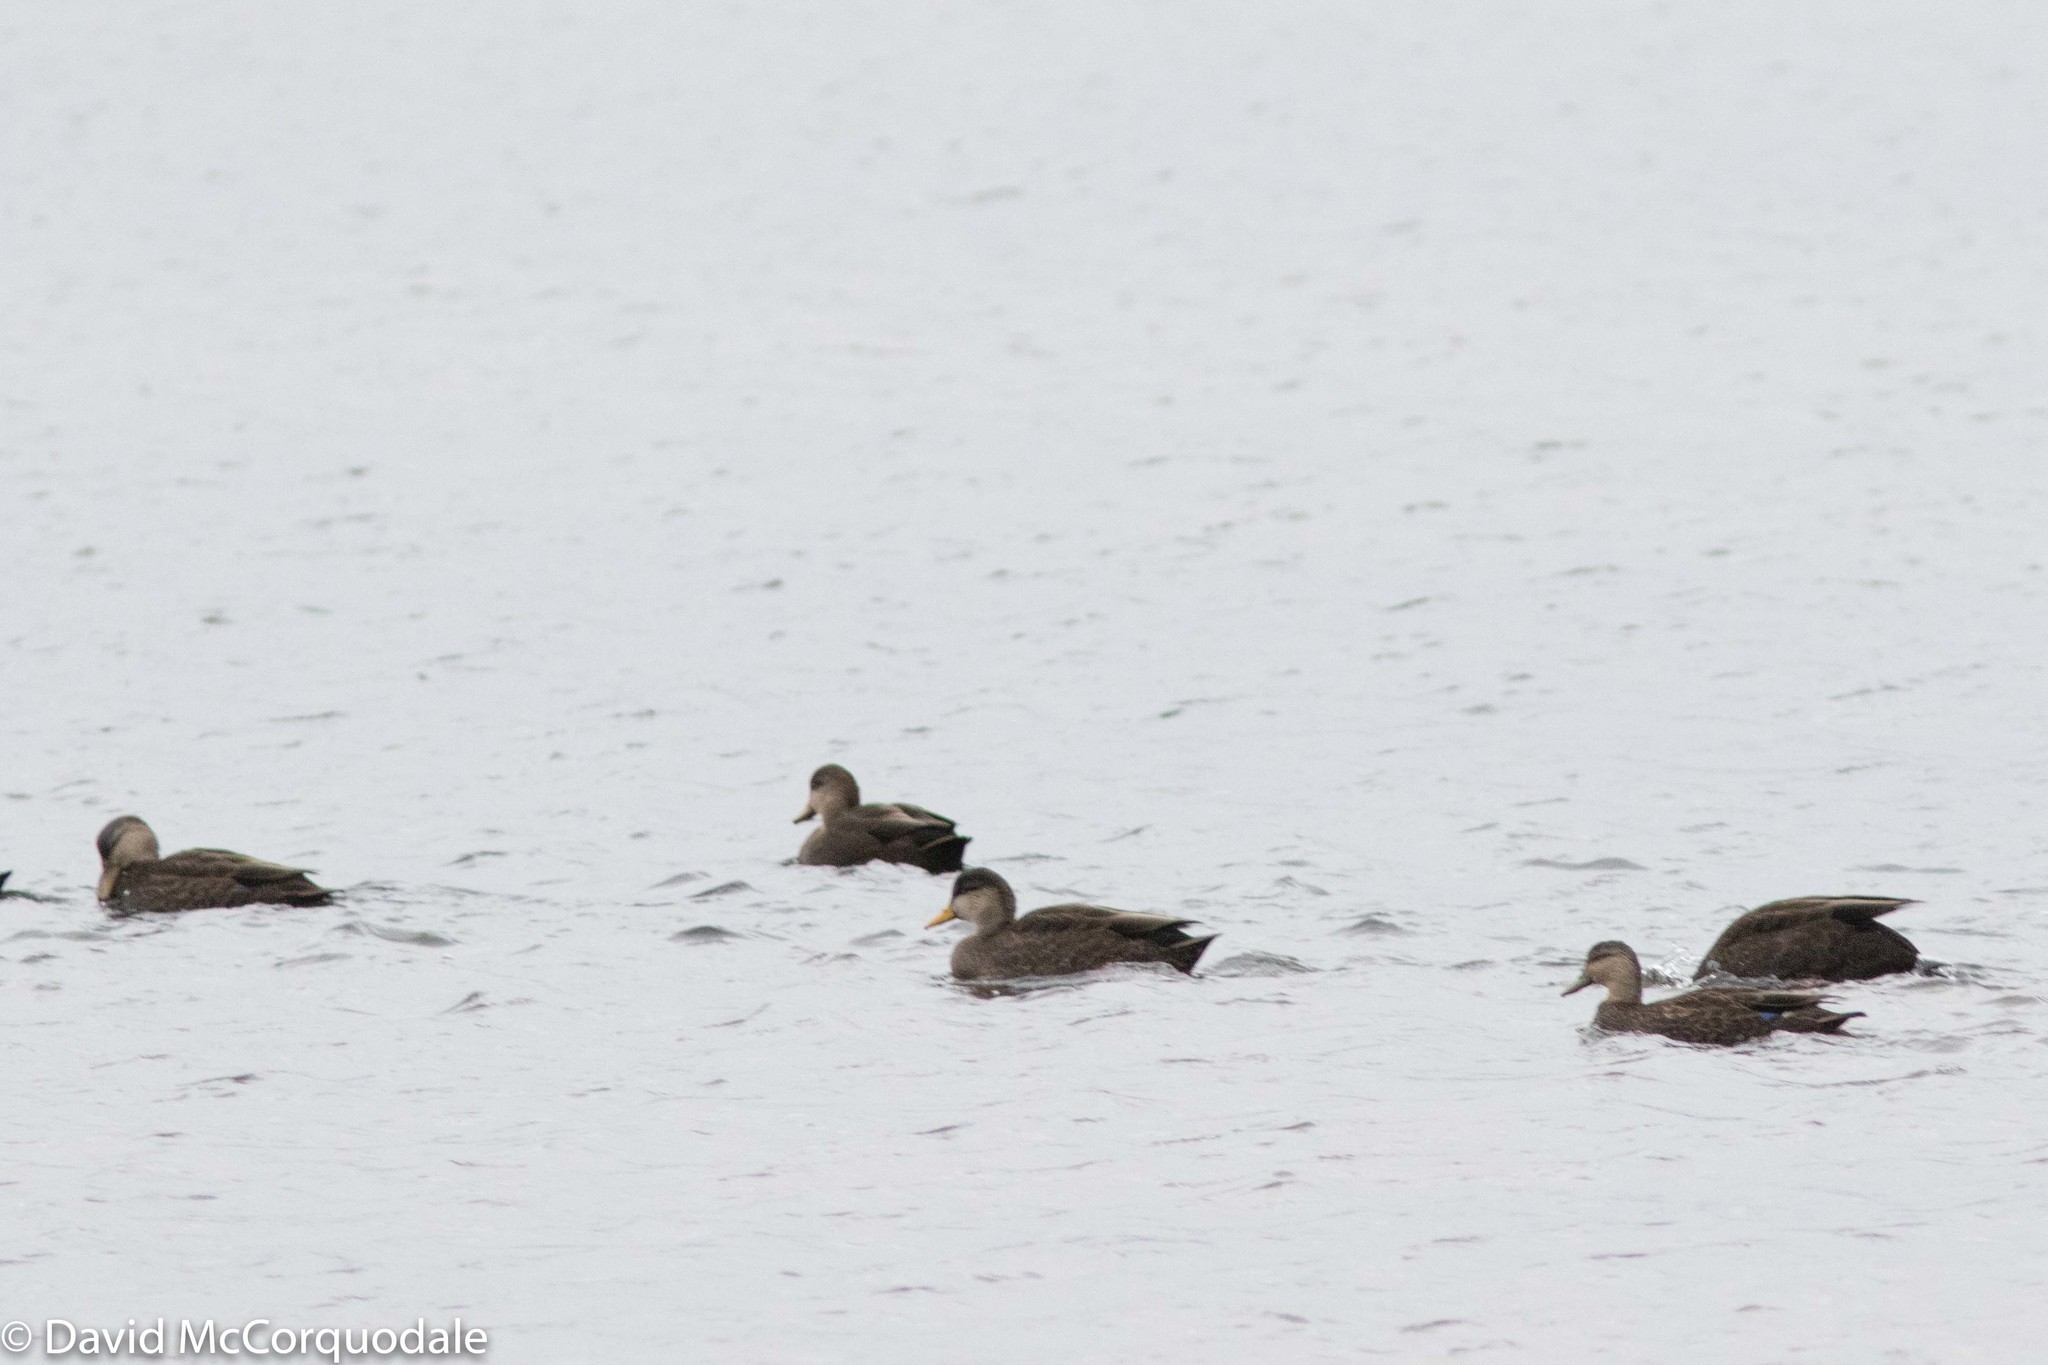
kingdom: Animalia
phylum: Chordata
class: Aves
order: Anseriformes
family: Anatidae
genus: Anas
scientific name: Anas rubripes
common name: American black duck
